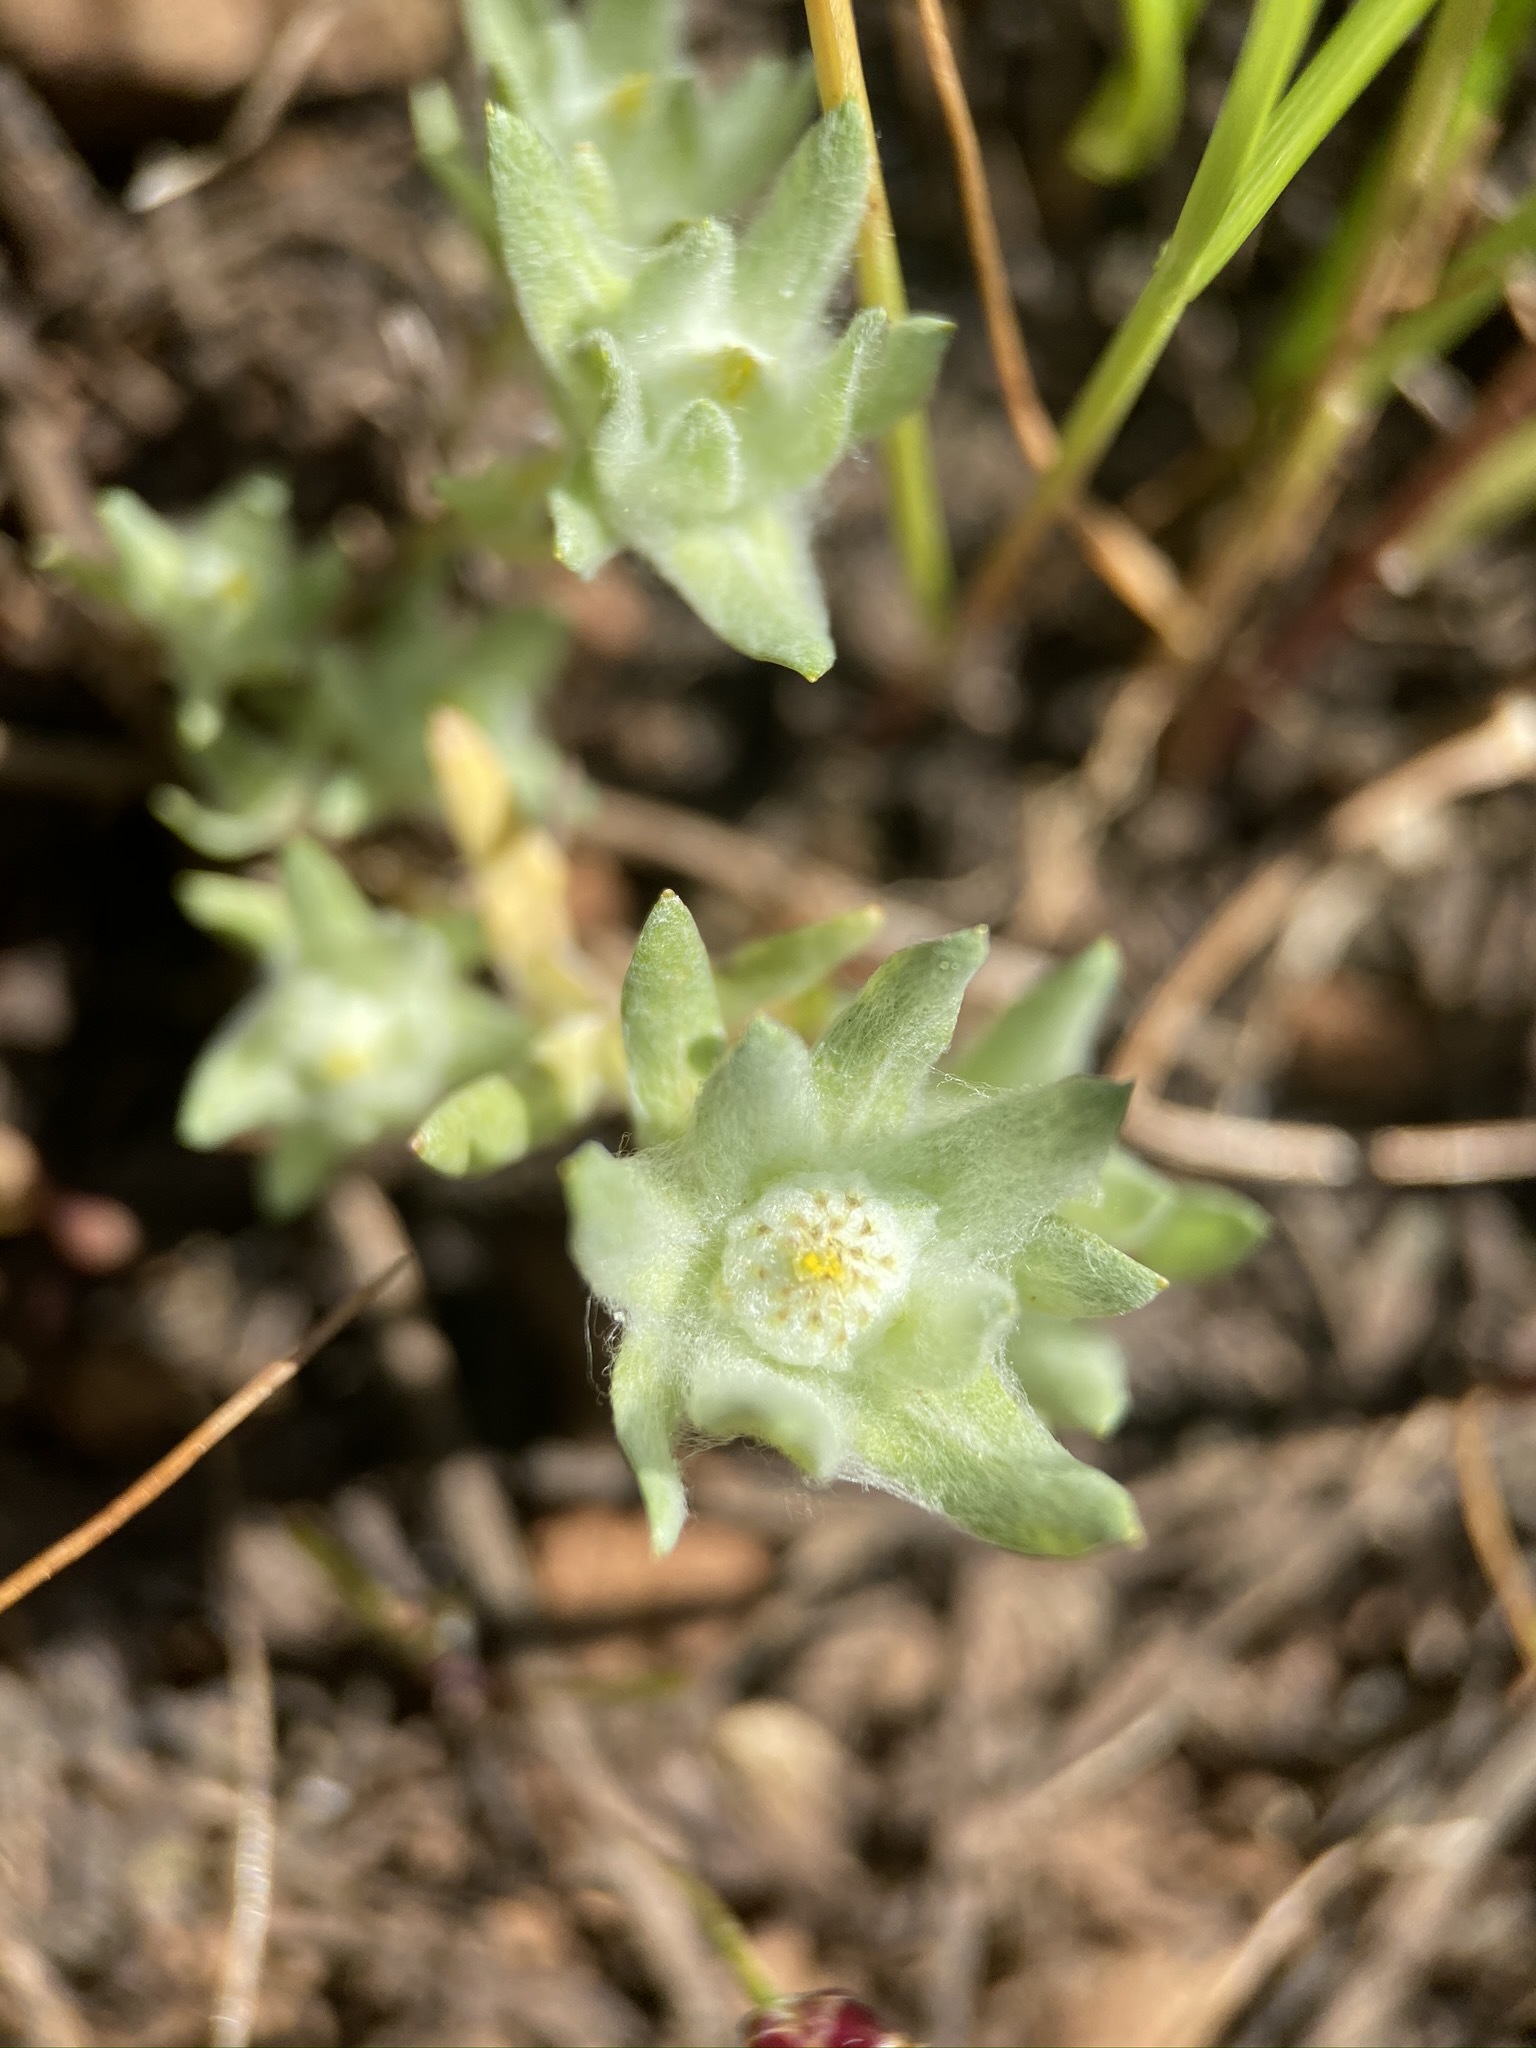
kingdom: Plantae
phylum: Tracheophyta
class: Magnoliopsida
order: Asterales
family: Asteraceae
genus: Psilocarphus
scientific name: Psilocarphus brevissimus
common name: Dwarf woollyheads
